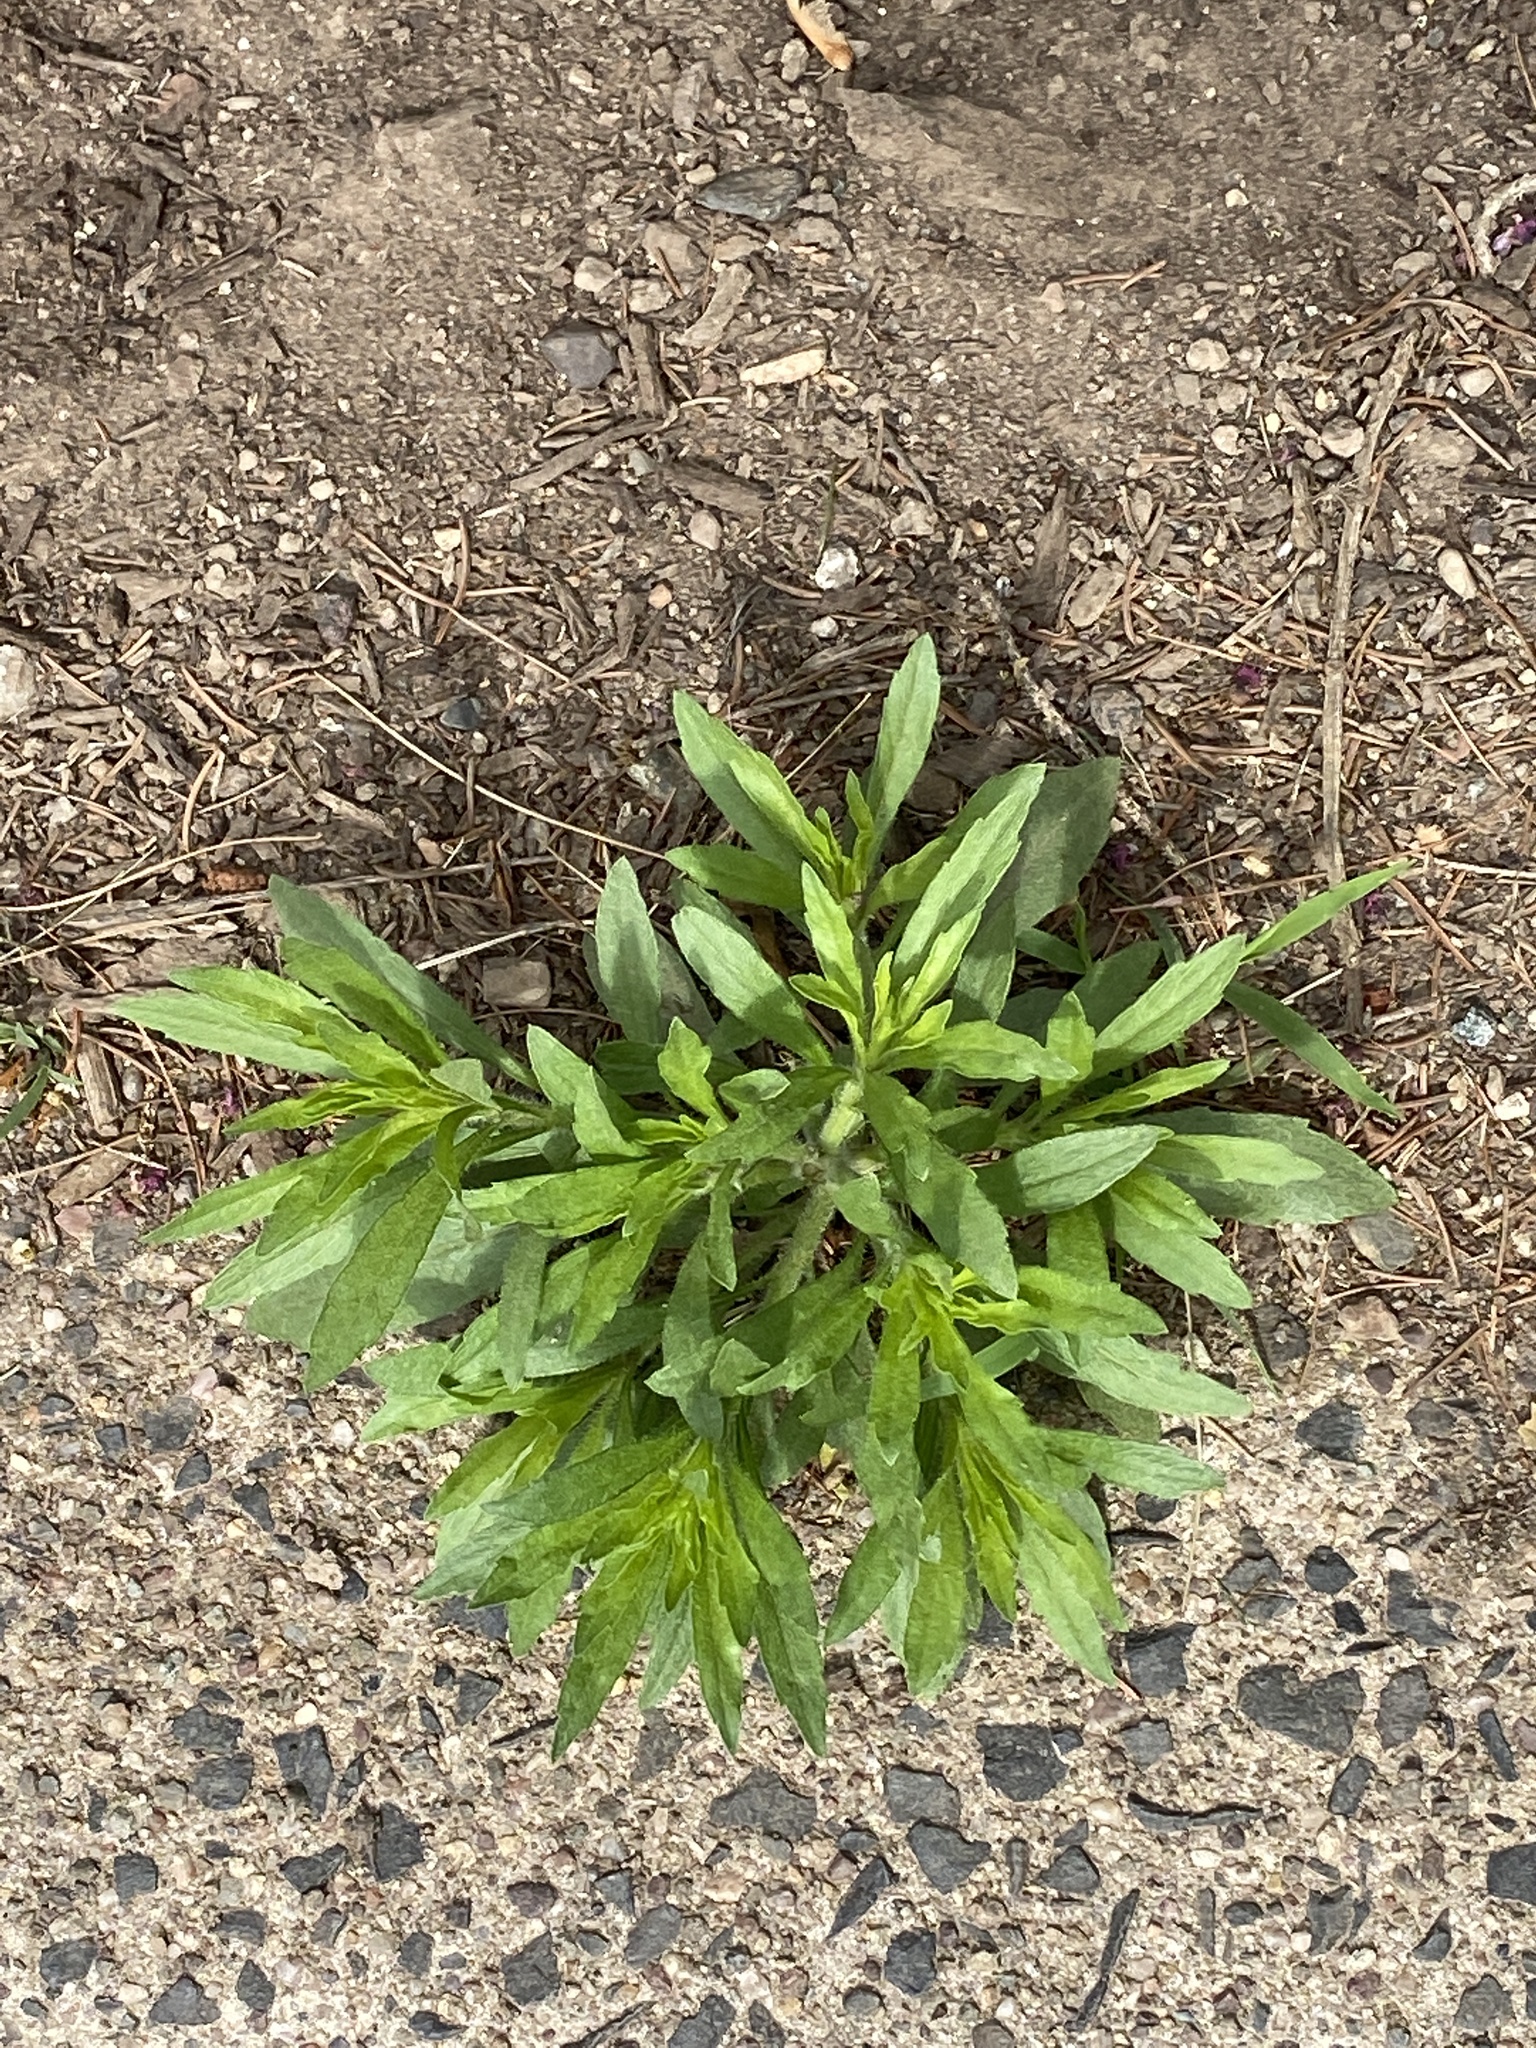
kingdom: Plantae
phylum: Tracheophyta
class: Magnoliopsida
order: Asterales
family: Asteraceae
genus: Erigeron
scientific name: Erigeron canadensis
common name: Canadian fleabane
